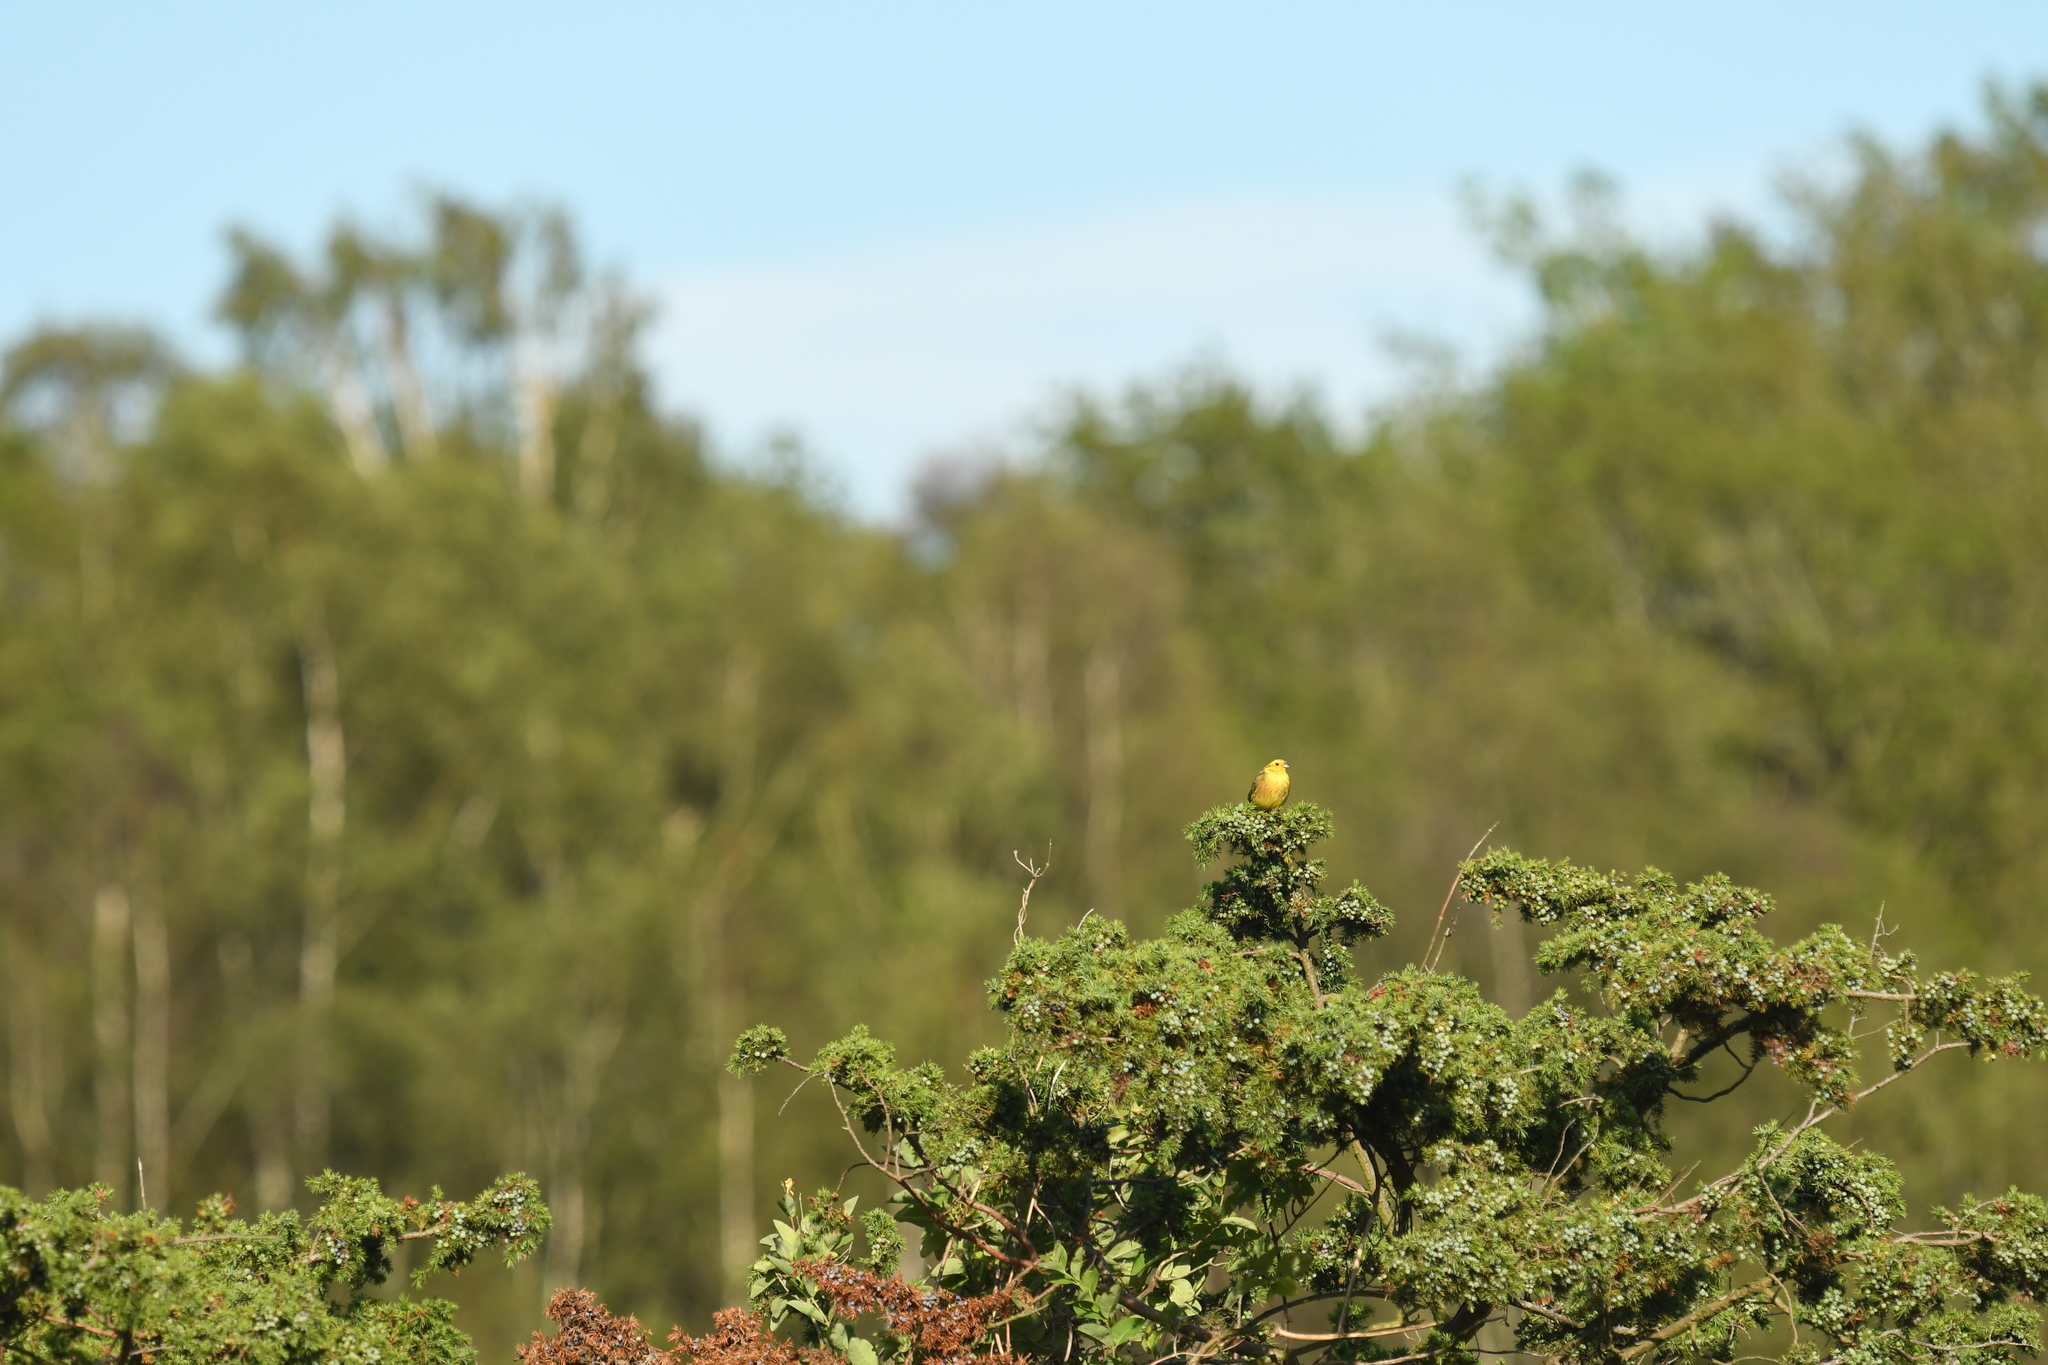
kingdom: Animalia
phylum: Chordata
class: Aves
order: Passeriformes
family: Emberizidae
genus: Emberiza
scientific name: Emberiza citrinella
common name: Yellowhammer
